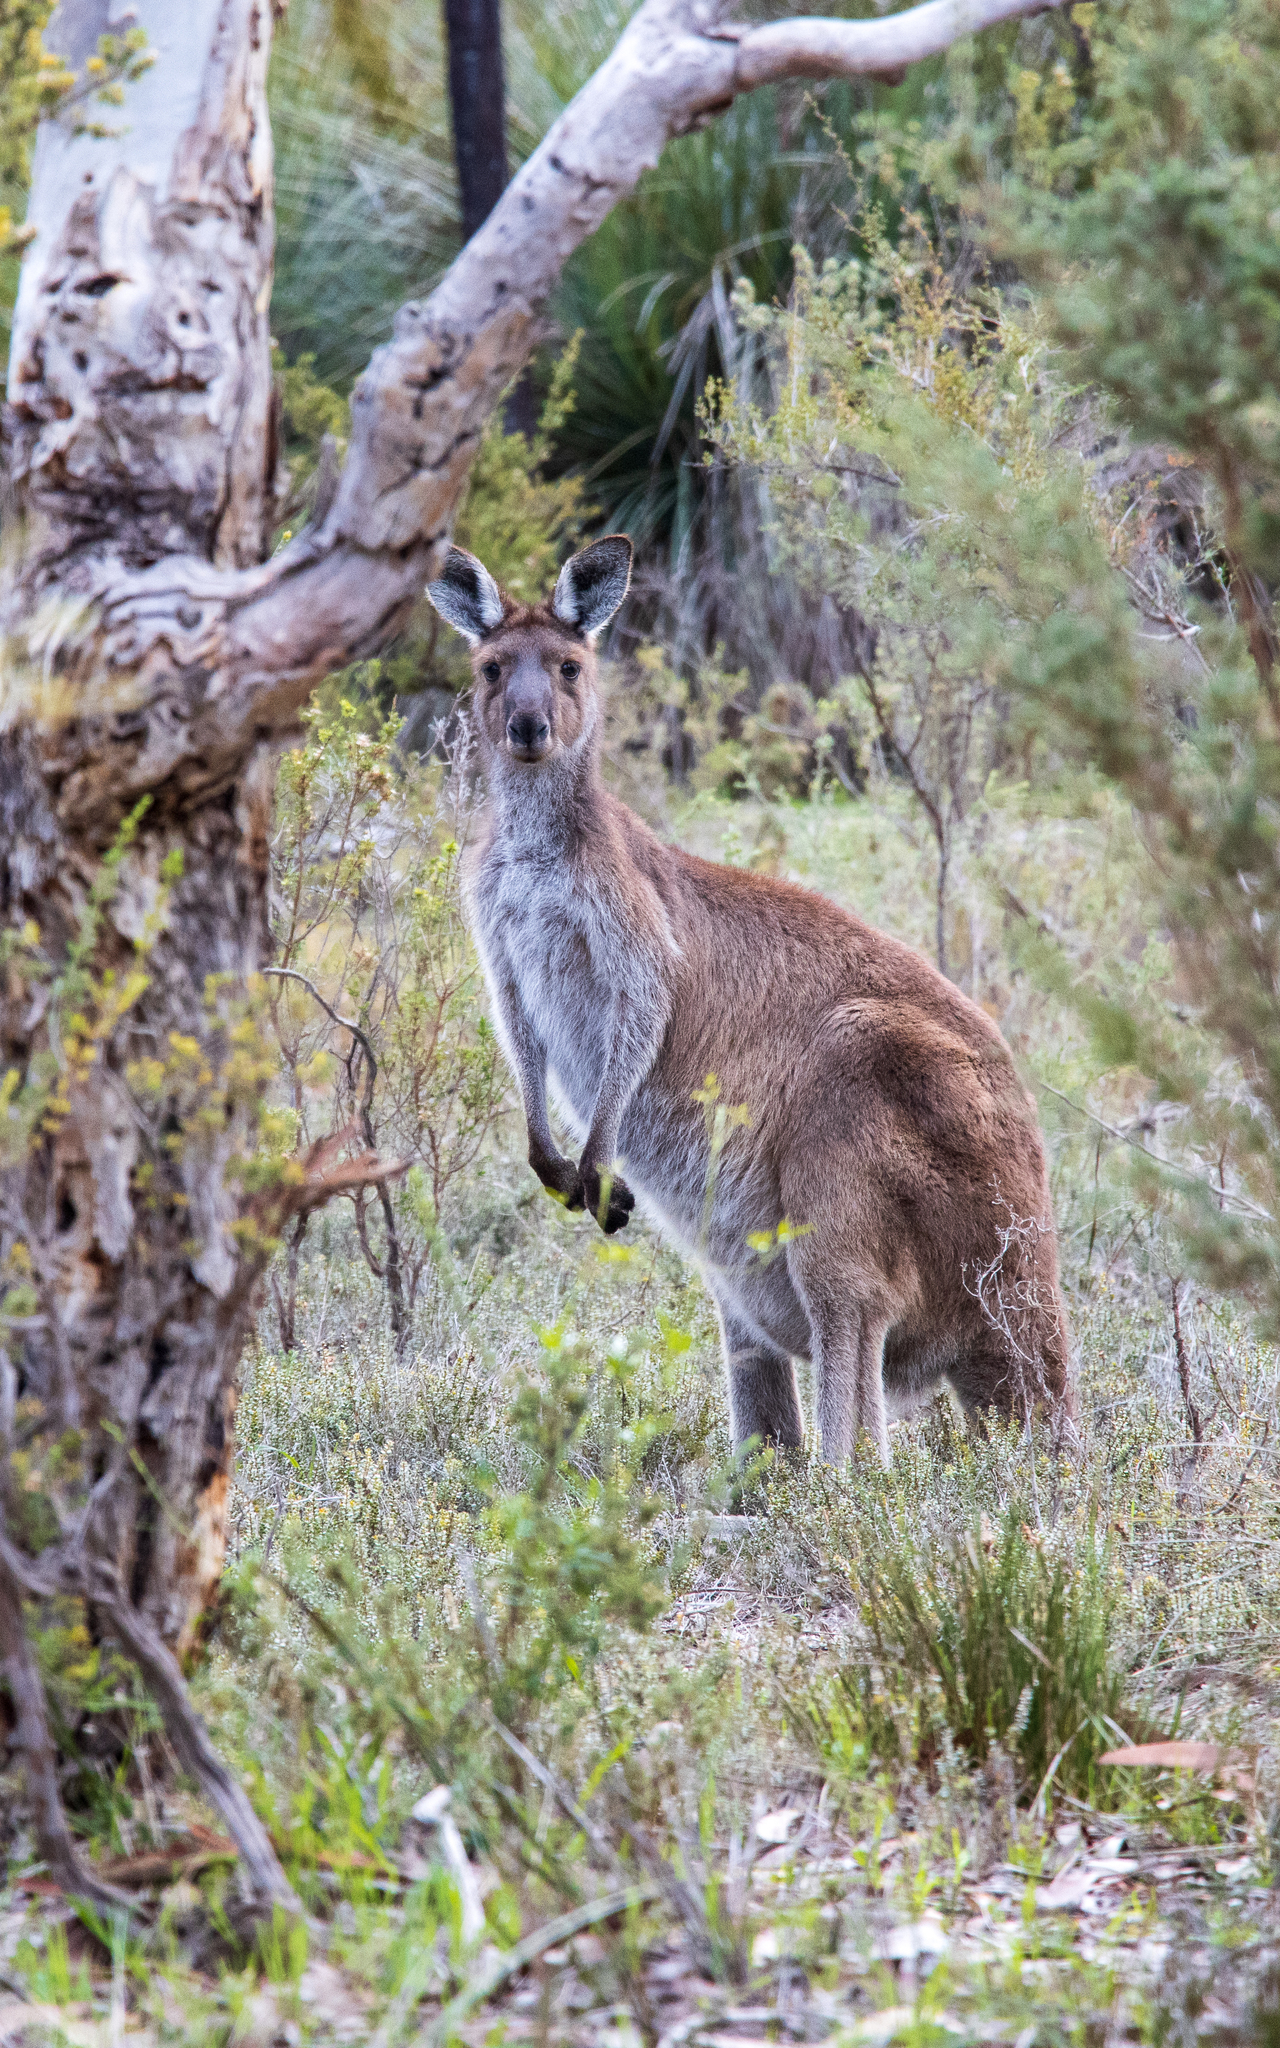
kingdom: Animalia
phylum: Chordata
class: Mammalia
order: Diprotodontia
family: Macropodidae
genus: Macropus
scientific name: Macropus fuliginosus
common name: Western grey kangaroo
